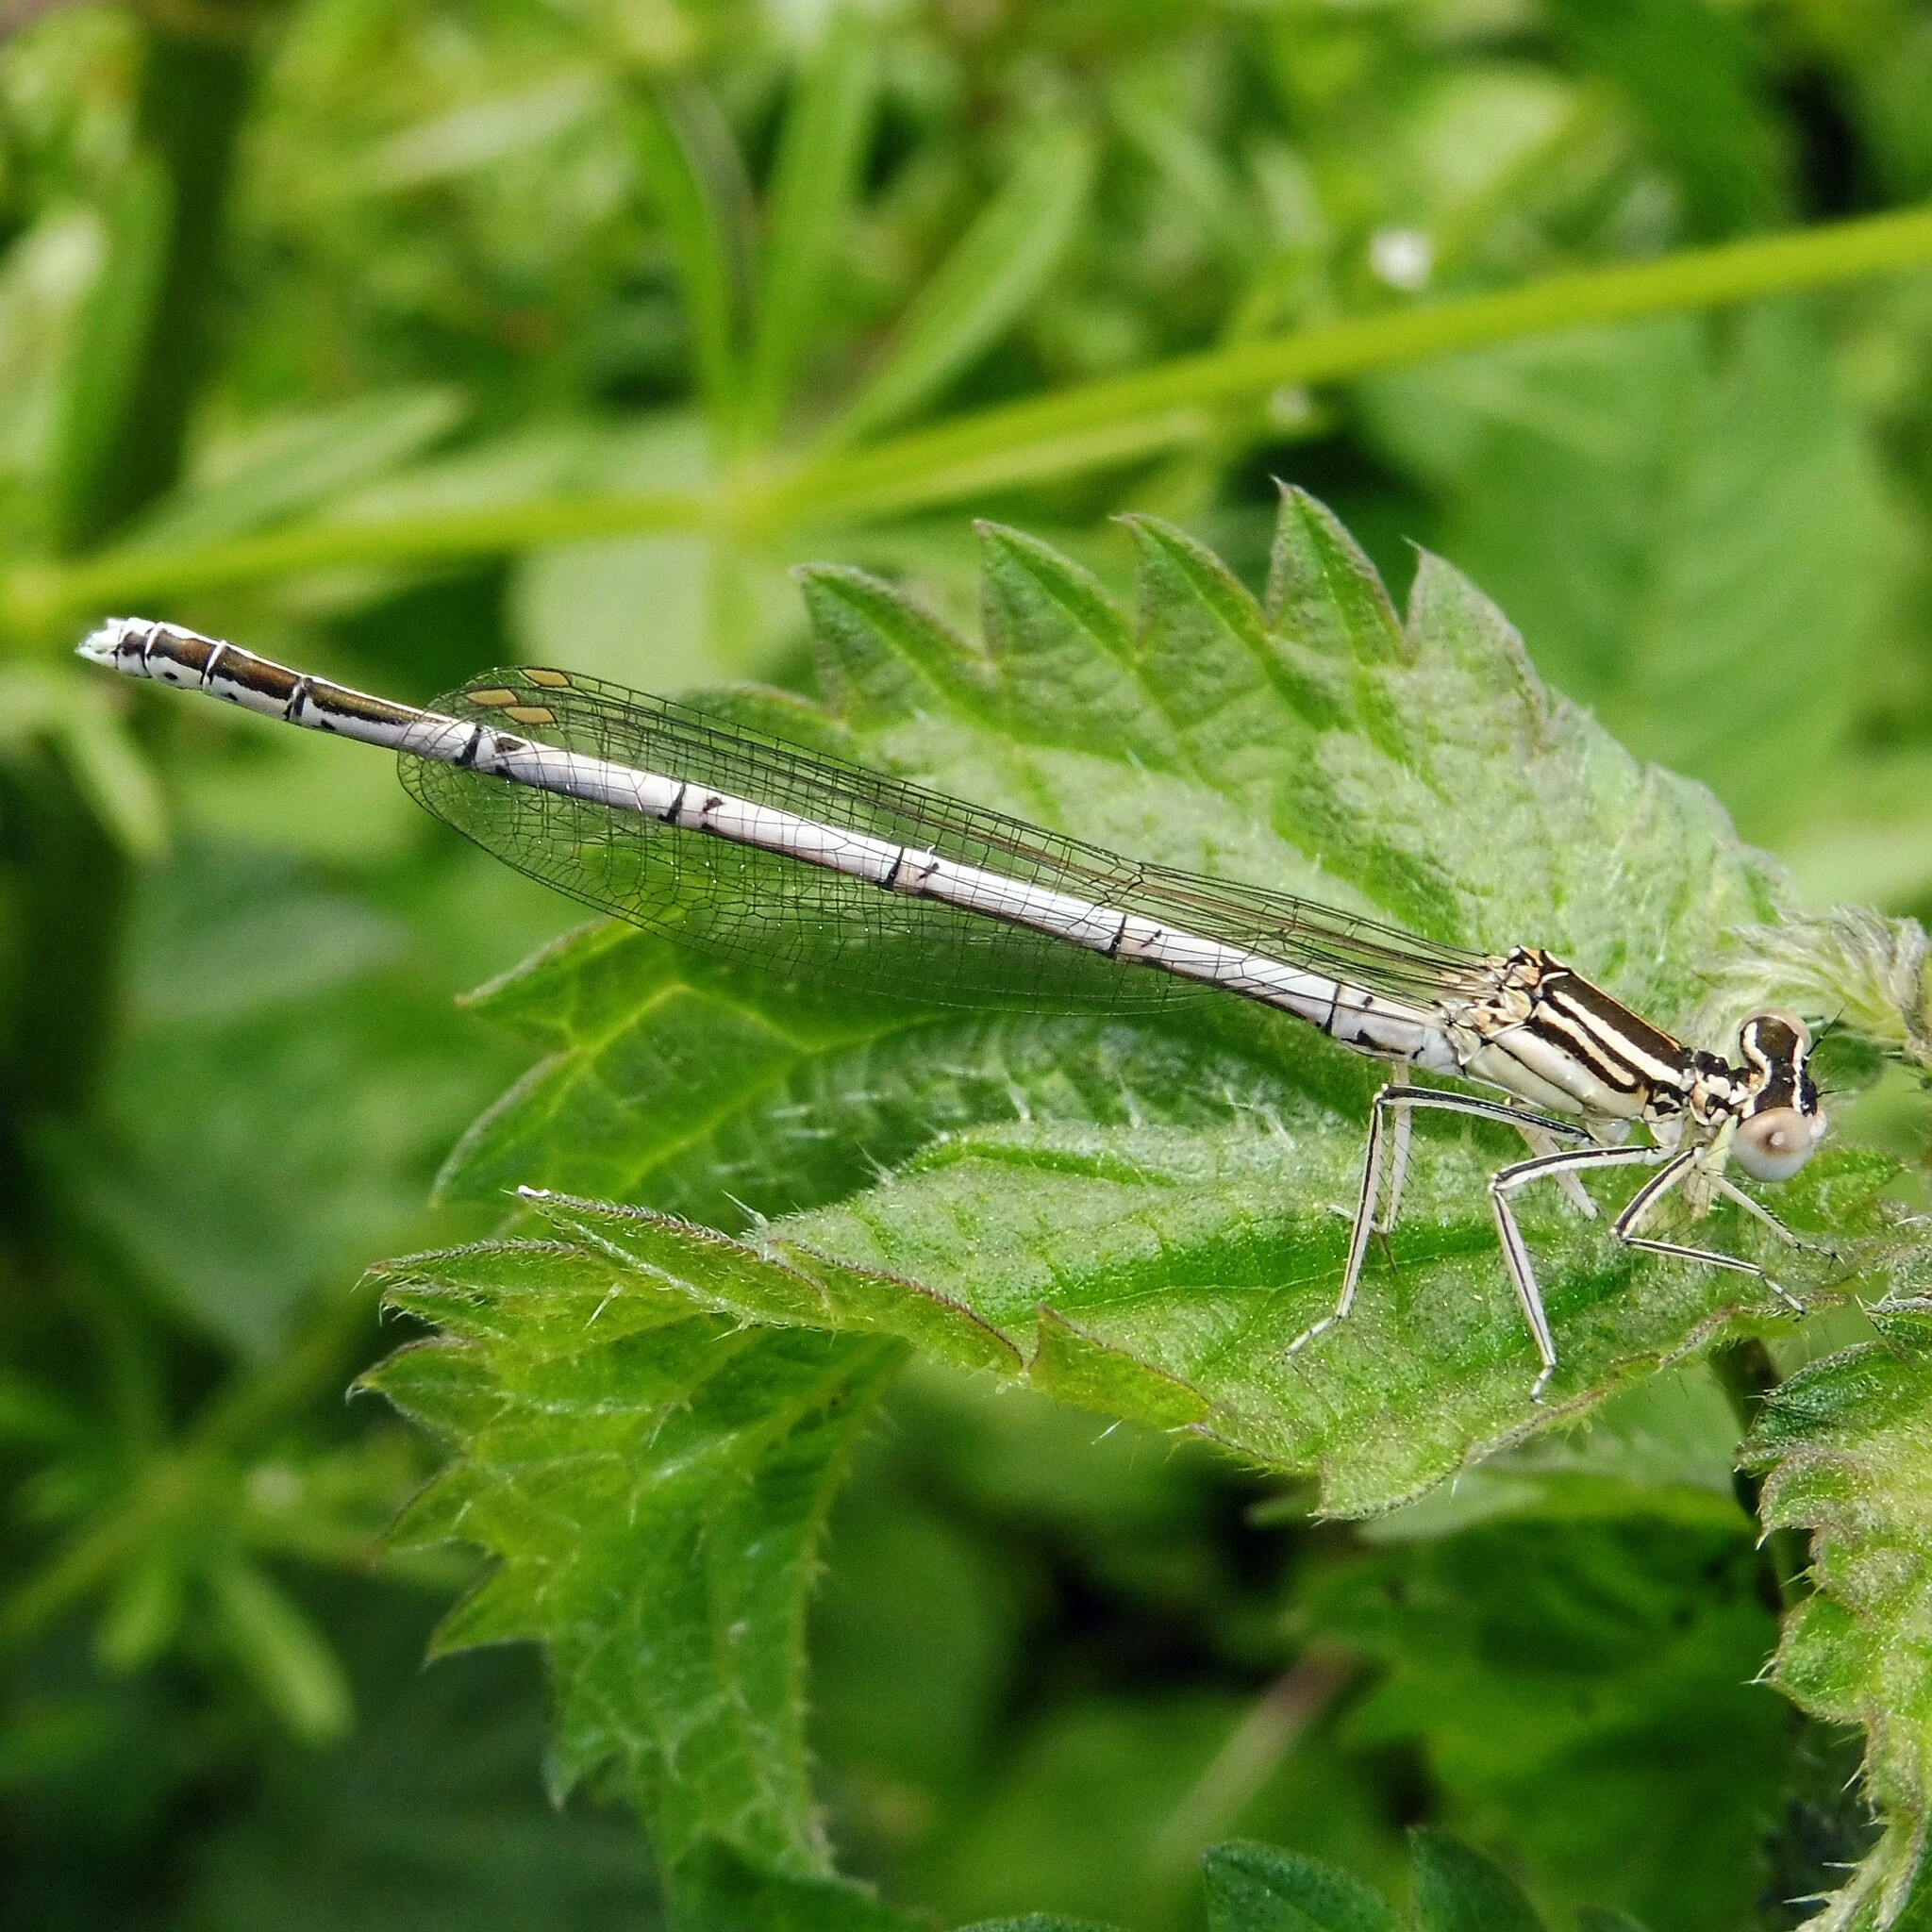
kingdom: Animalia
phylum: Arthropoda
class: Insecta
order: Odonata
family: Platycnemididae
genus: Platycnemis
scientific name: Platycnemis pennipes
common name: White-legged damselfly
